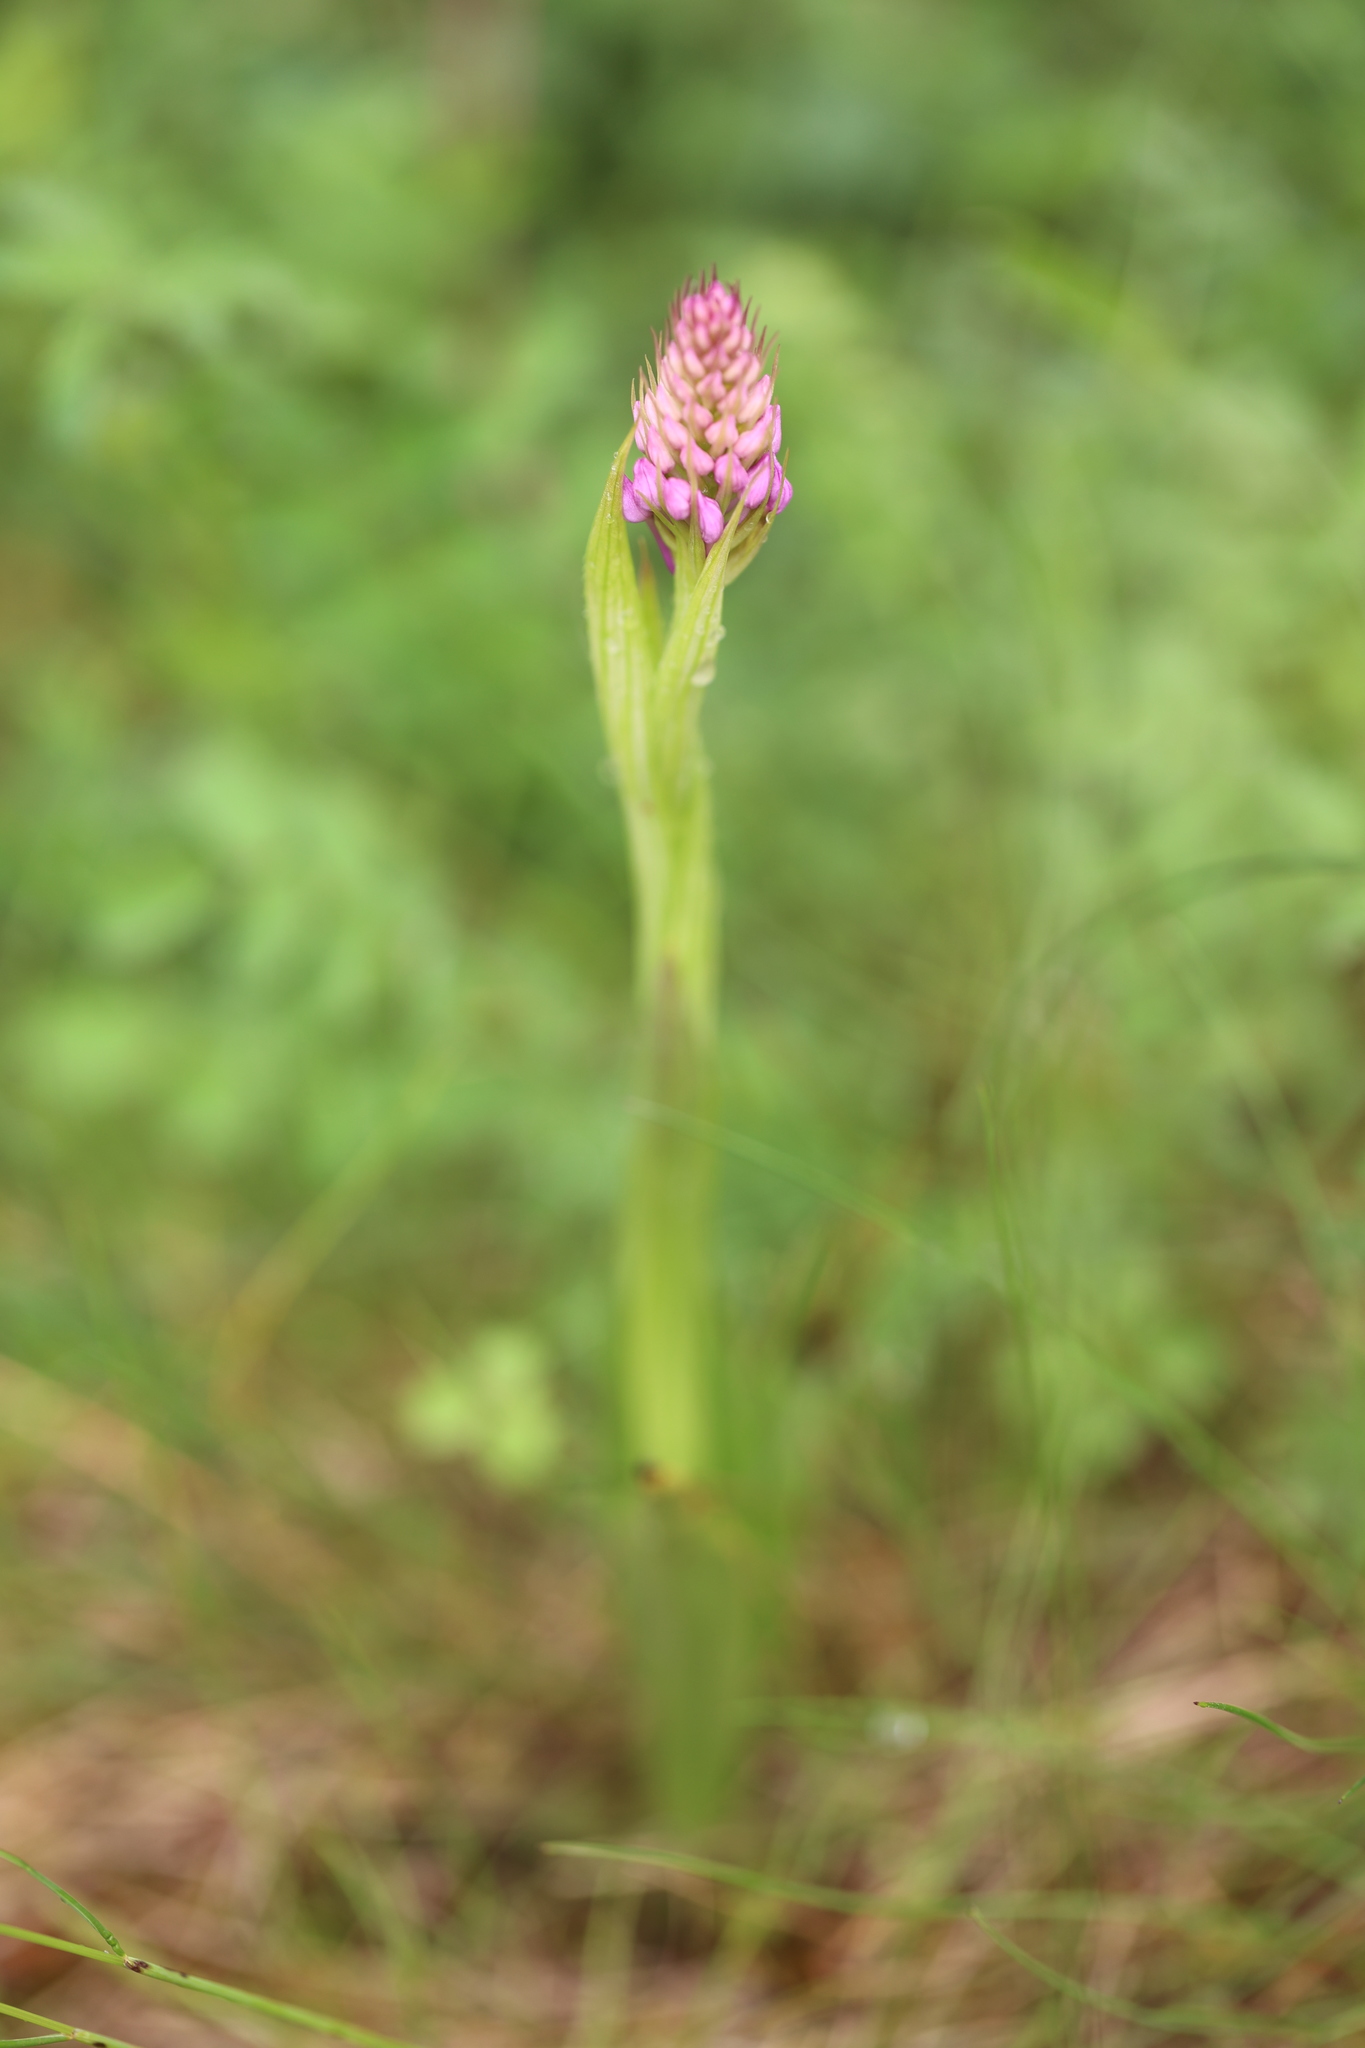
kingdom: Plantae
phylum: Tracheophyta
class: Liliopsida
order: Asparagales
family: Orchidaceae
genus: Anacamptis
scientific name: Anacamptis pyramidalis
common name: Pyramidal orchid
